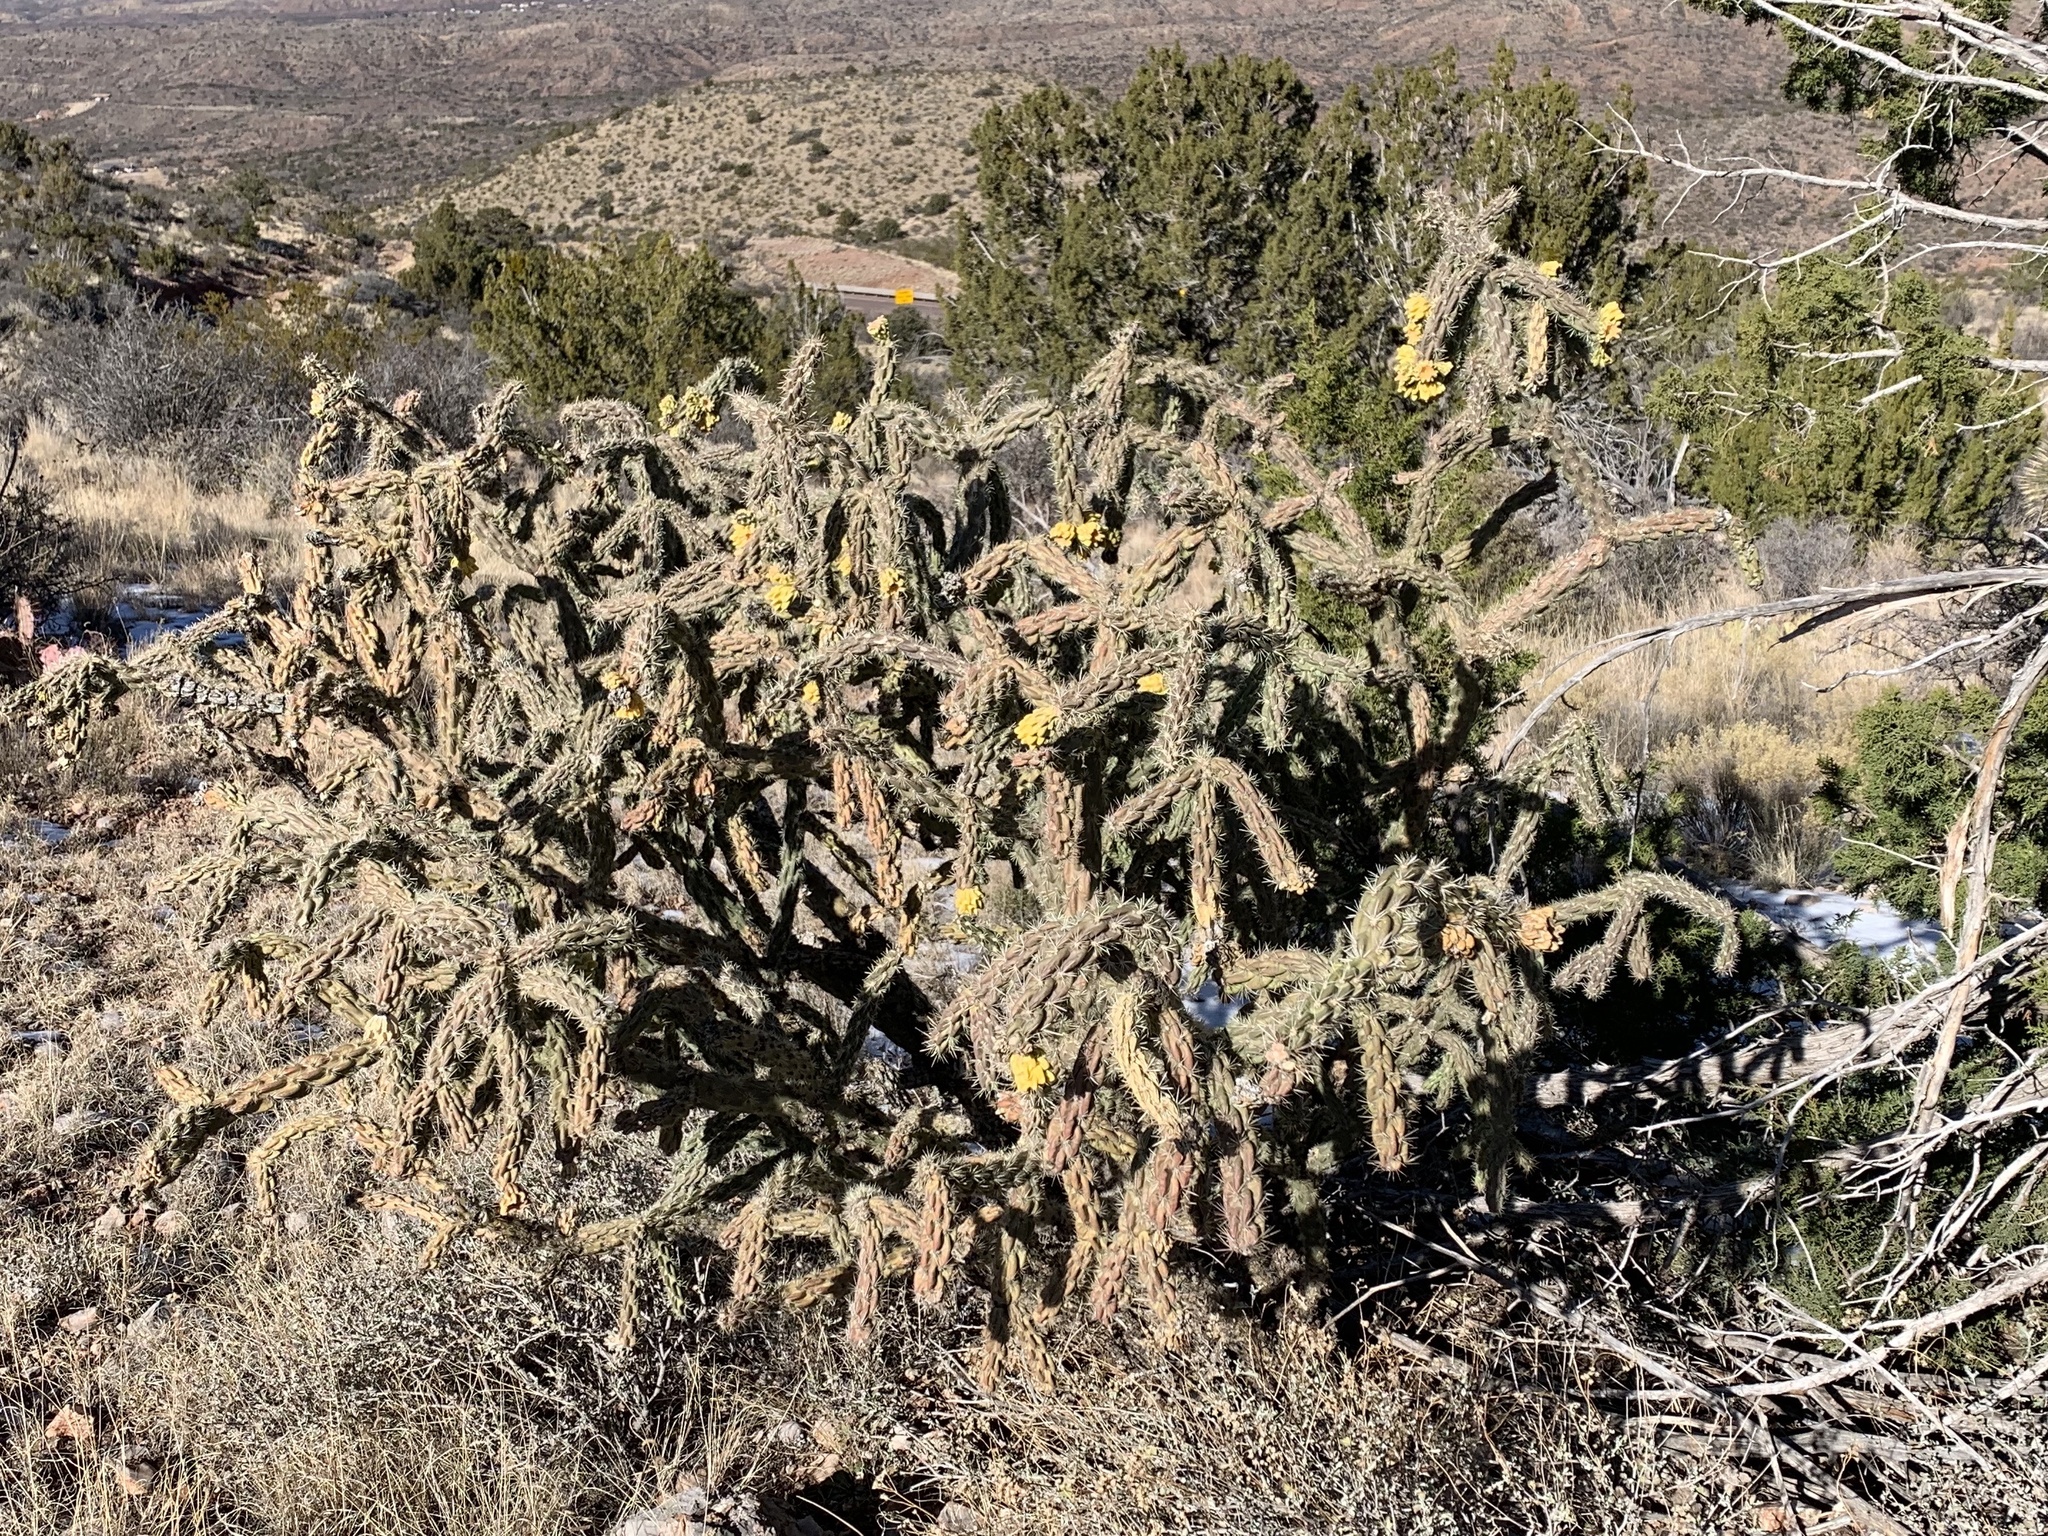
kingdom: Plantae
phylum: Tracheophyta
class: Magnoliopsida
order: Caryophyllales
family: Cactaceae
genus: Cylindropuntia
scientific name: Cylindropuntia imbricata
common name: Candelabrum cactus
